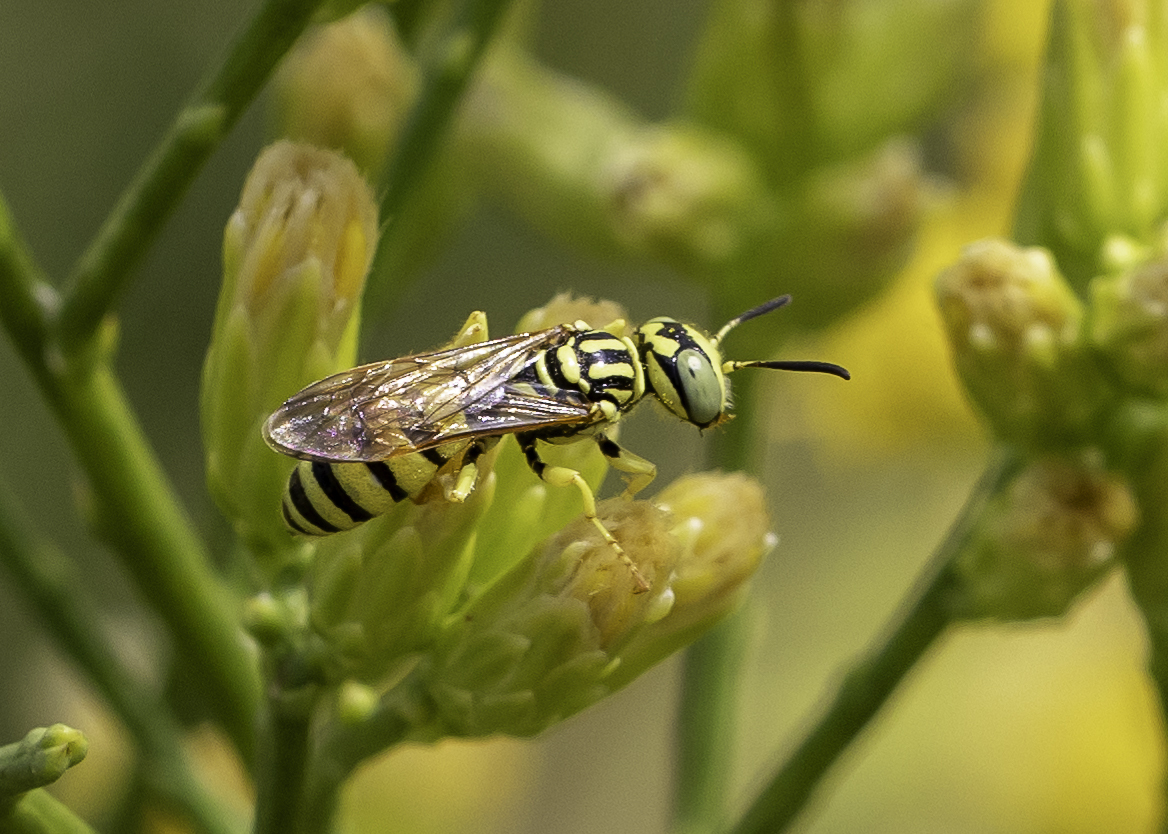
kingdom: Animalia
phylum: Arthropoda
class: Insecta
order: Hymenoptera
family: Crabronidae
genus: Philanthus
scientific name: Philanthus multimaculatus
